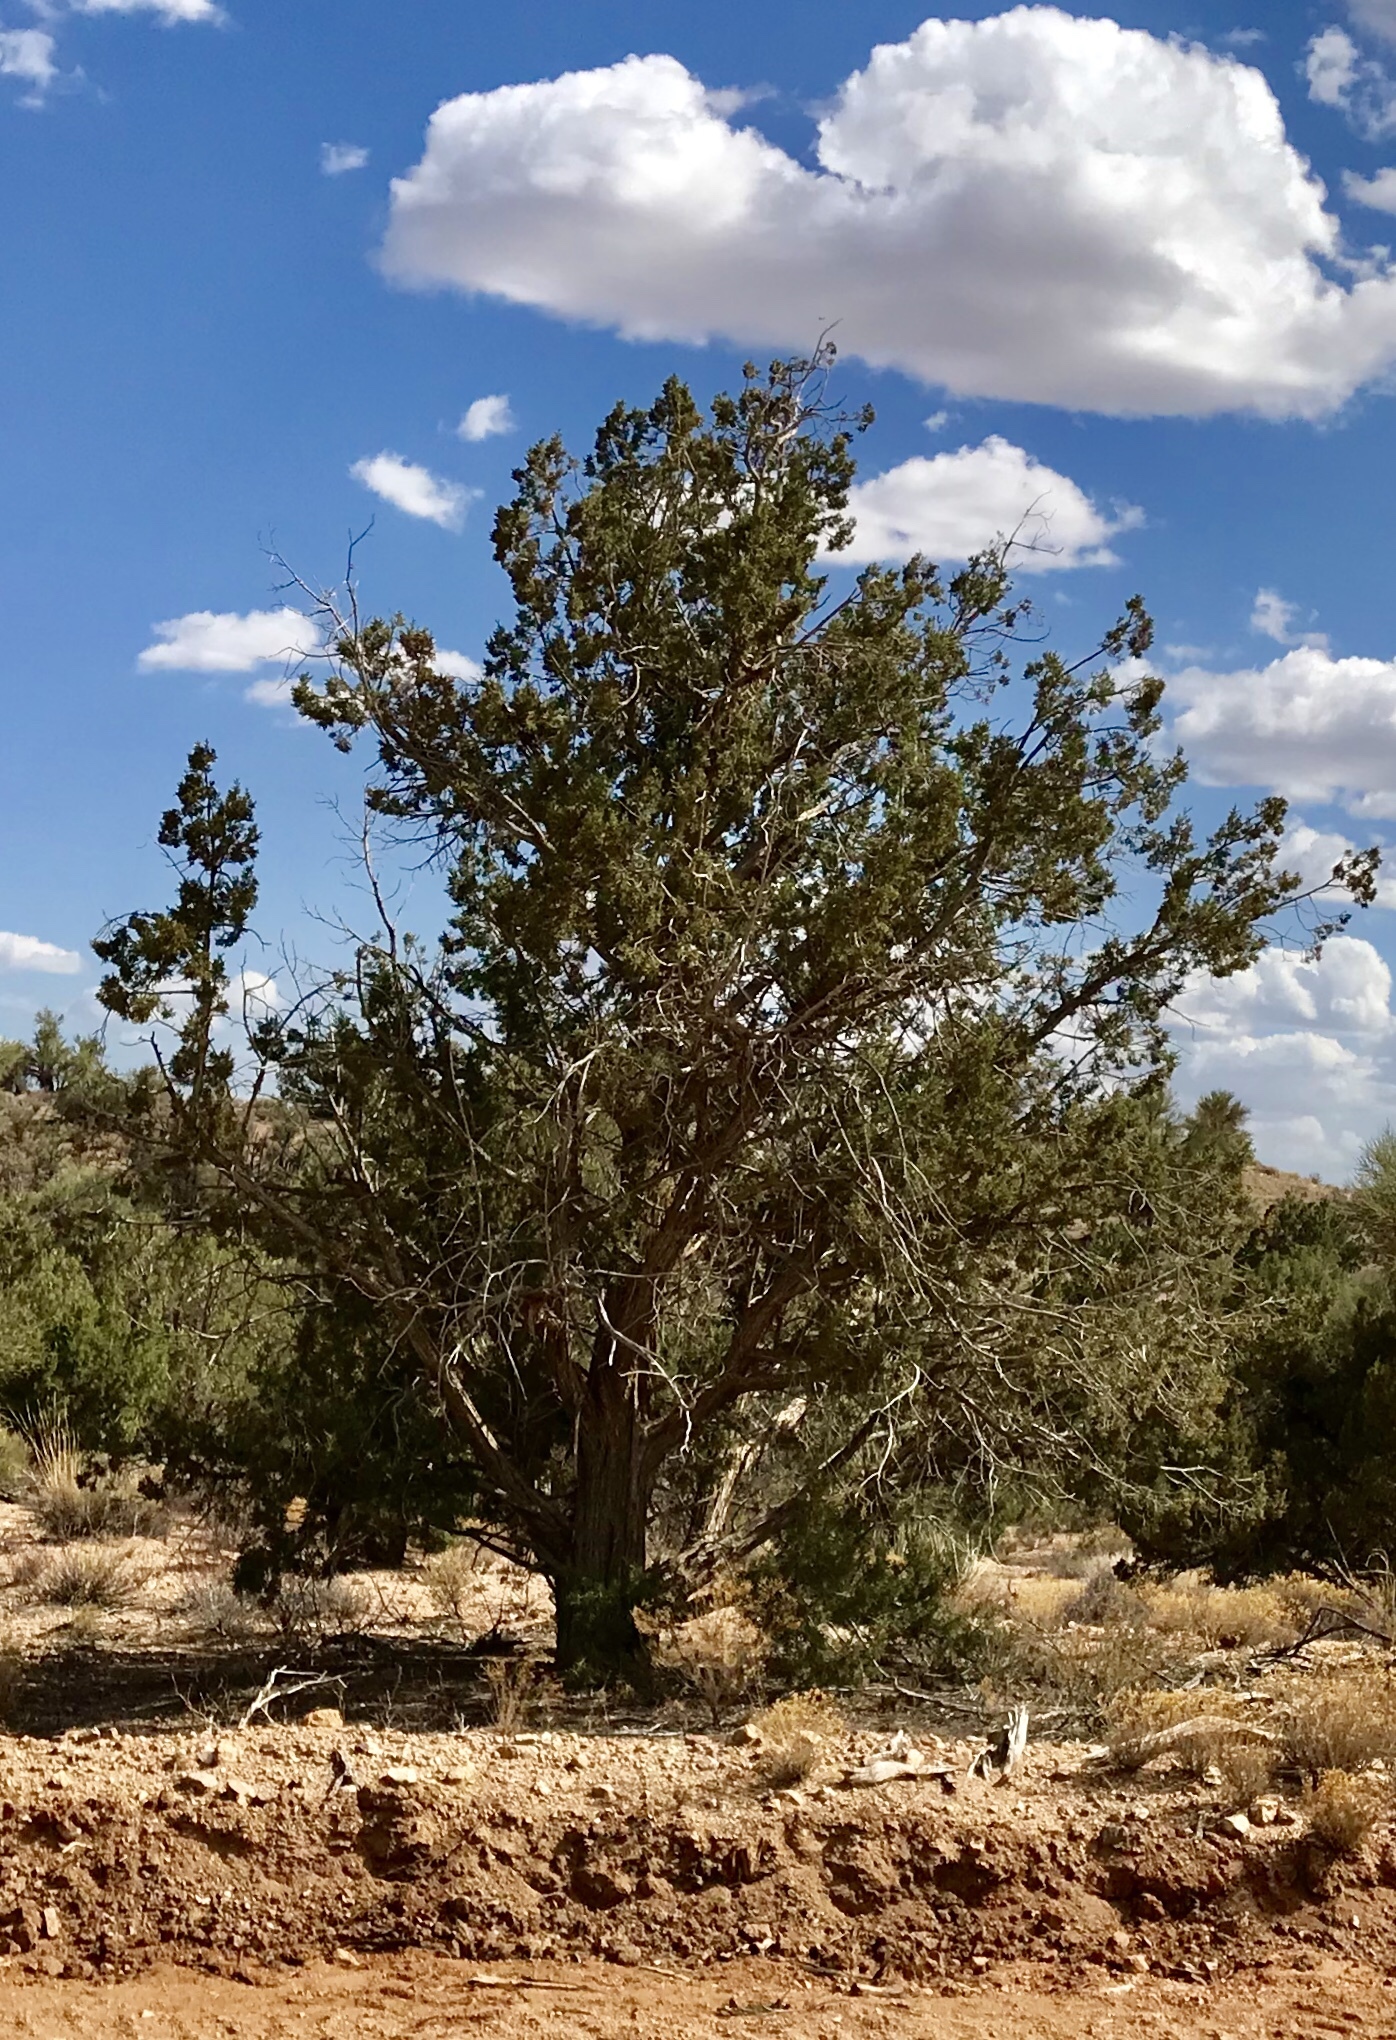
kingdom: Plantae
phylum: Tracheophyta
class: Pinopsida
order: Pinales
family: Cupressaceae
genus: Juniperus
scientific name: Juniperus osteosperma
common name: Utah juniper
